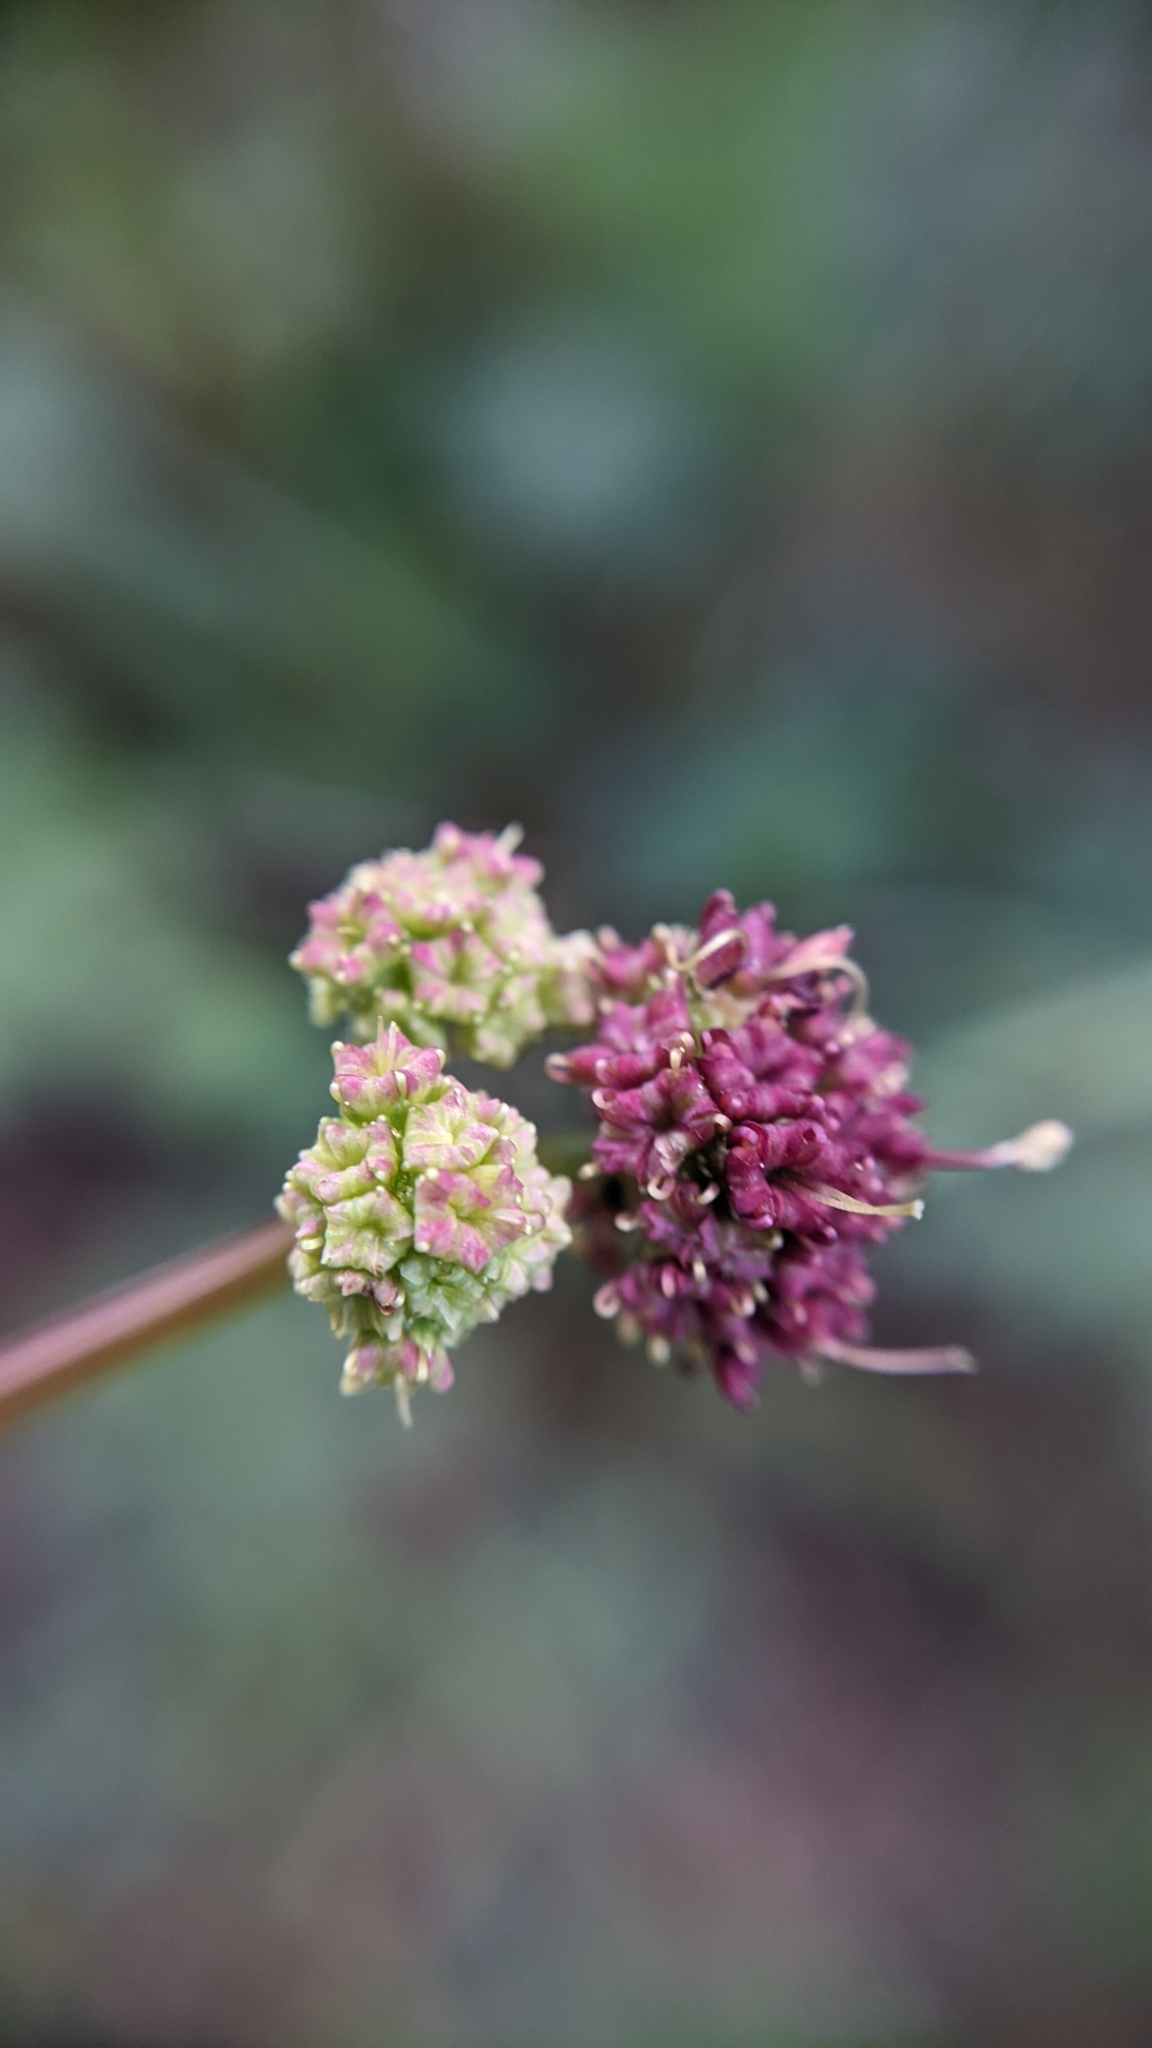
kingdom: Plantae
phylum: Tracheophyta
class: Magnoliopsida
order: Apiales
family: Apiaceae
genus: Sanicula
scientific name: Sanicula bipinnatifida
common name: Shoe-buttons
